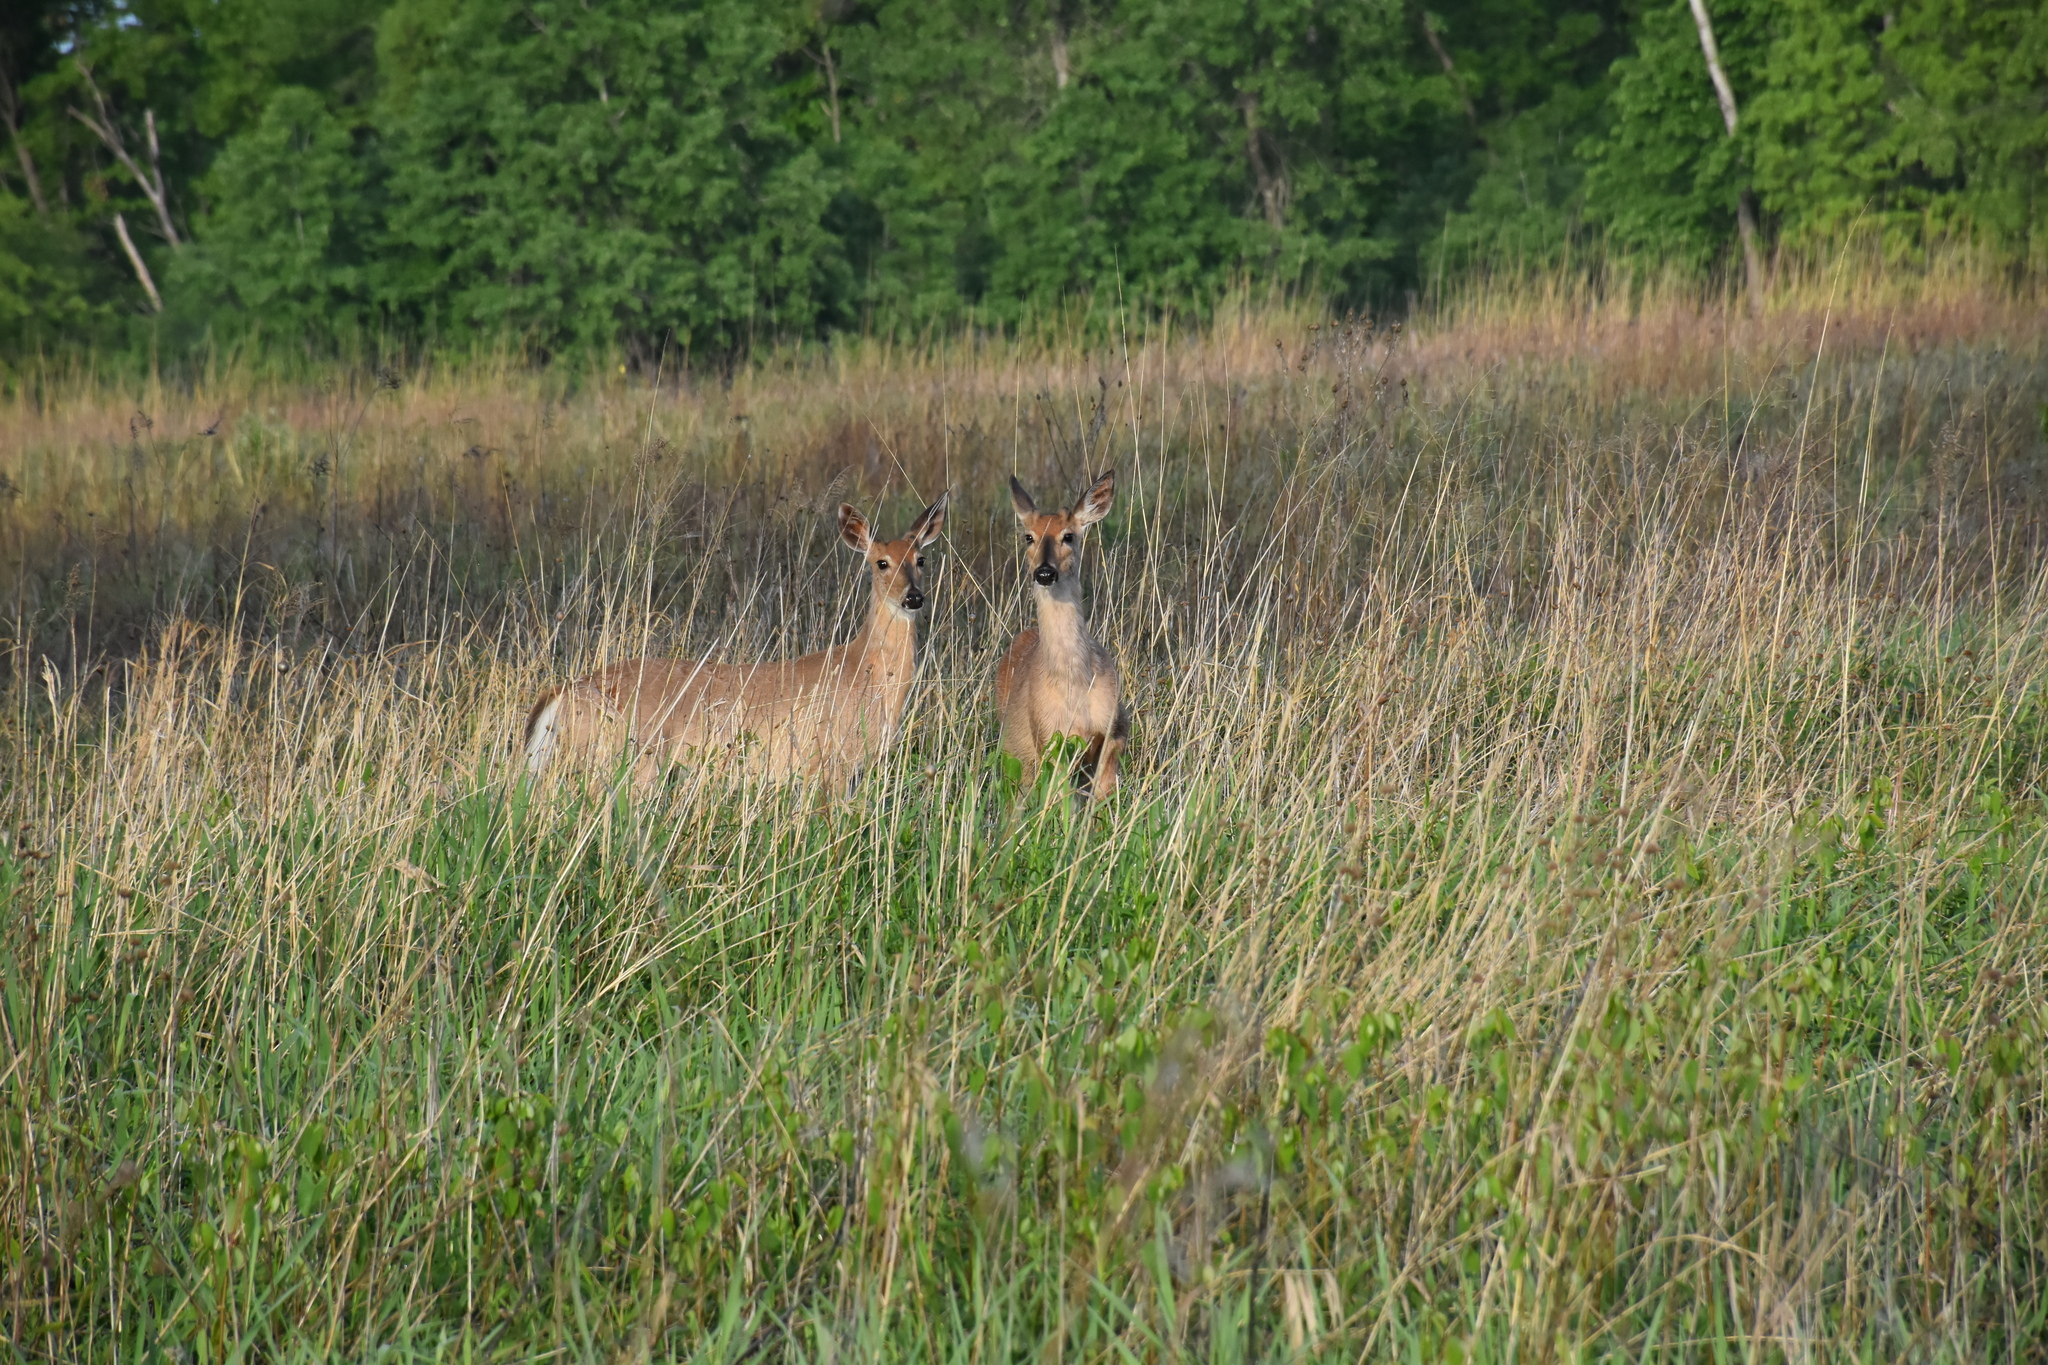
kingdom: Animalia
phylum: Chordata
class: Mammalia
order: Artiodactyla
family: Cervidae
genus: Odocoileus
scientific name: Odocoileus virginianus
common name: White-tailed deer
